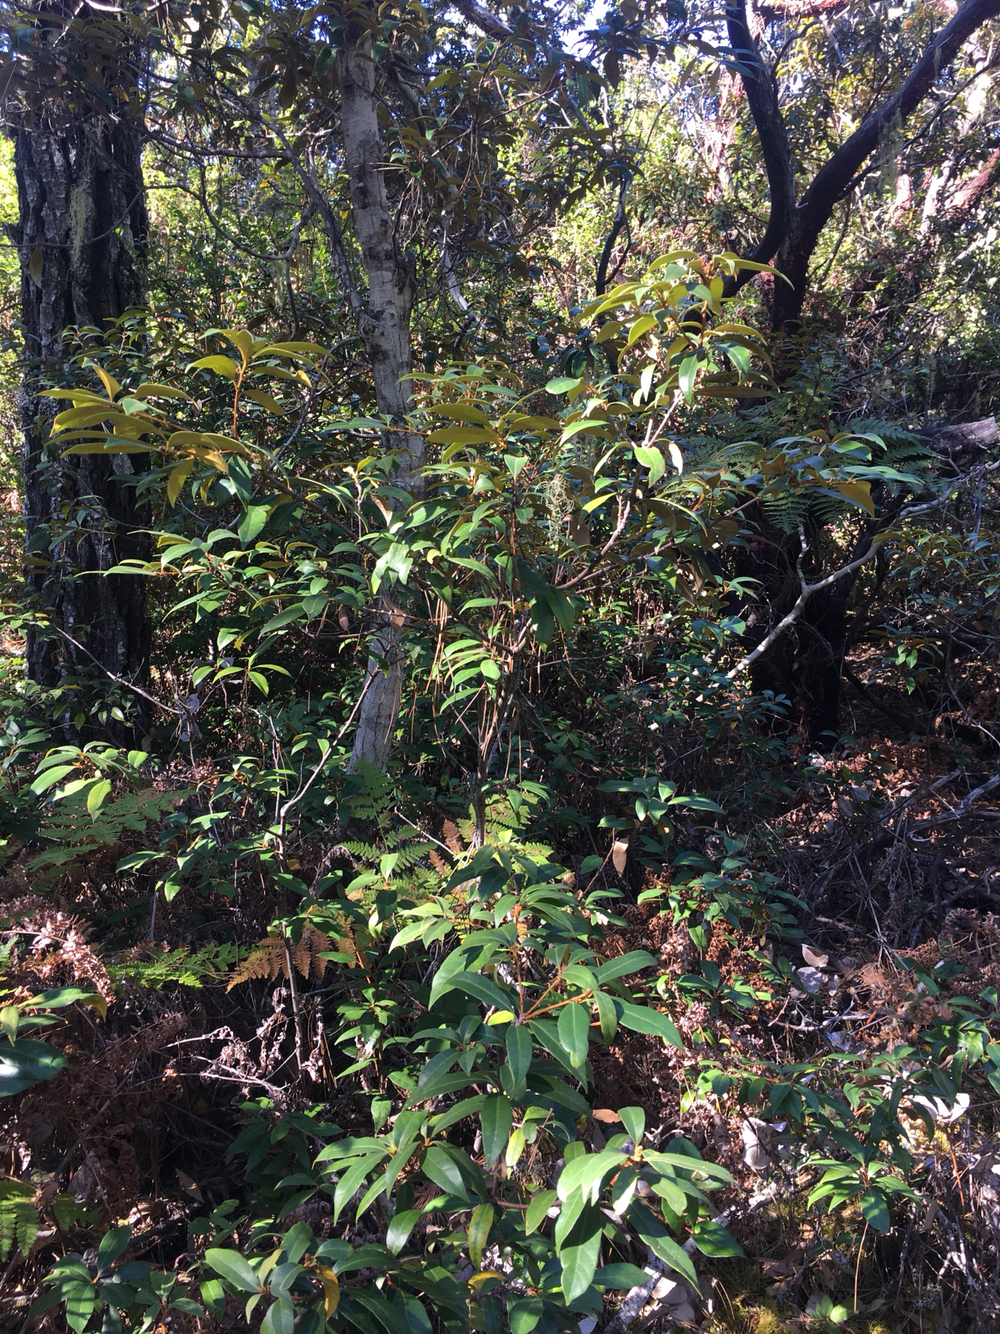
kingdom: Plantae
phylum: Tracheophyta
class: Magnoliopsida
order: Fagales
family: Fagaceae
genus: Chrysolepis
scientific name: Chrysolepis chrysophylla
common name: Giant chinquapin
